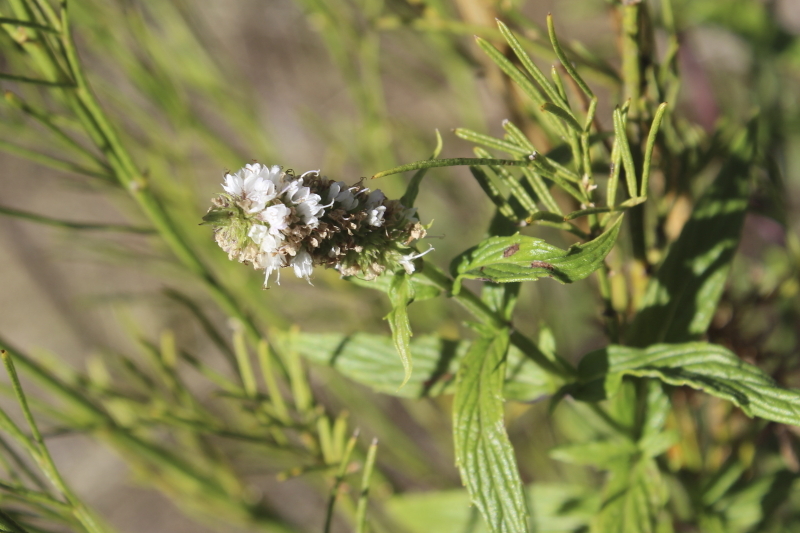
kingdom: Plantae
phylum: Tracheophyta
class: Magnoliopsida
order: Lamiales
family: Lamiaceae
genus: Mentha
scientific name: Mentha longifolia
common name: Horse mint
